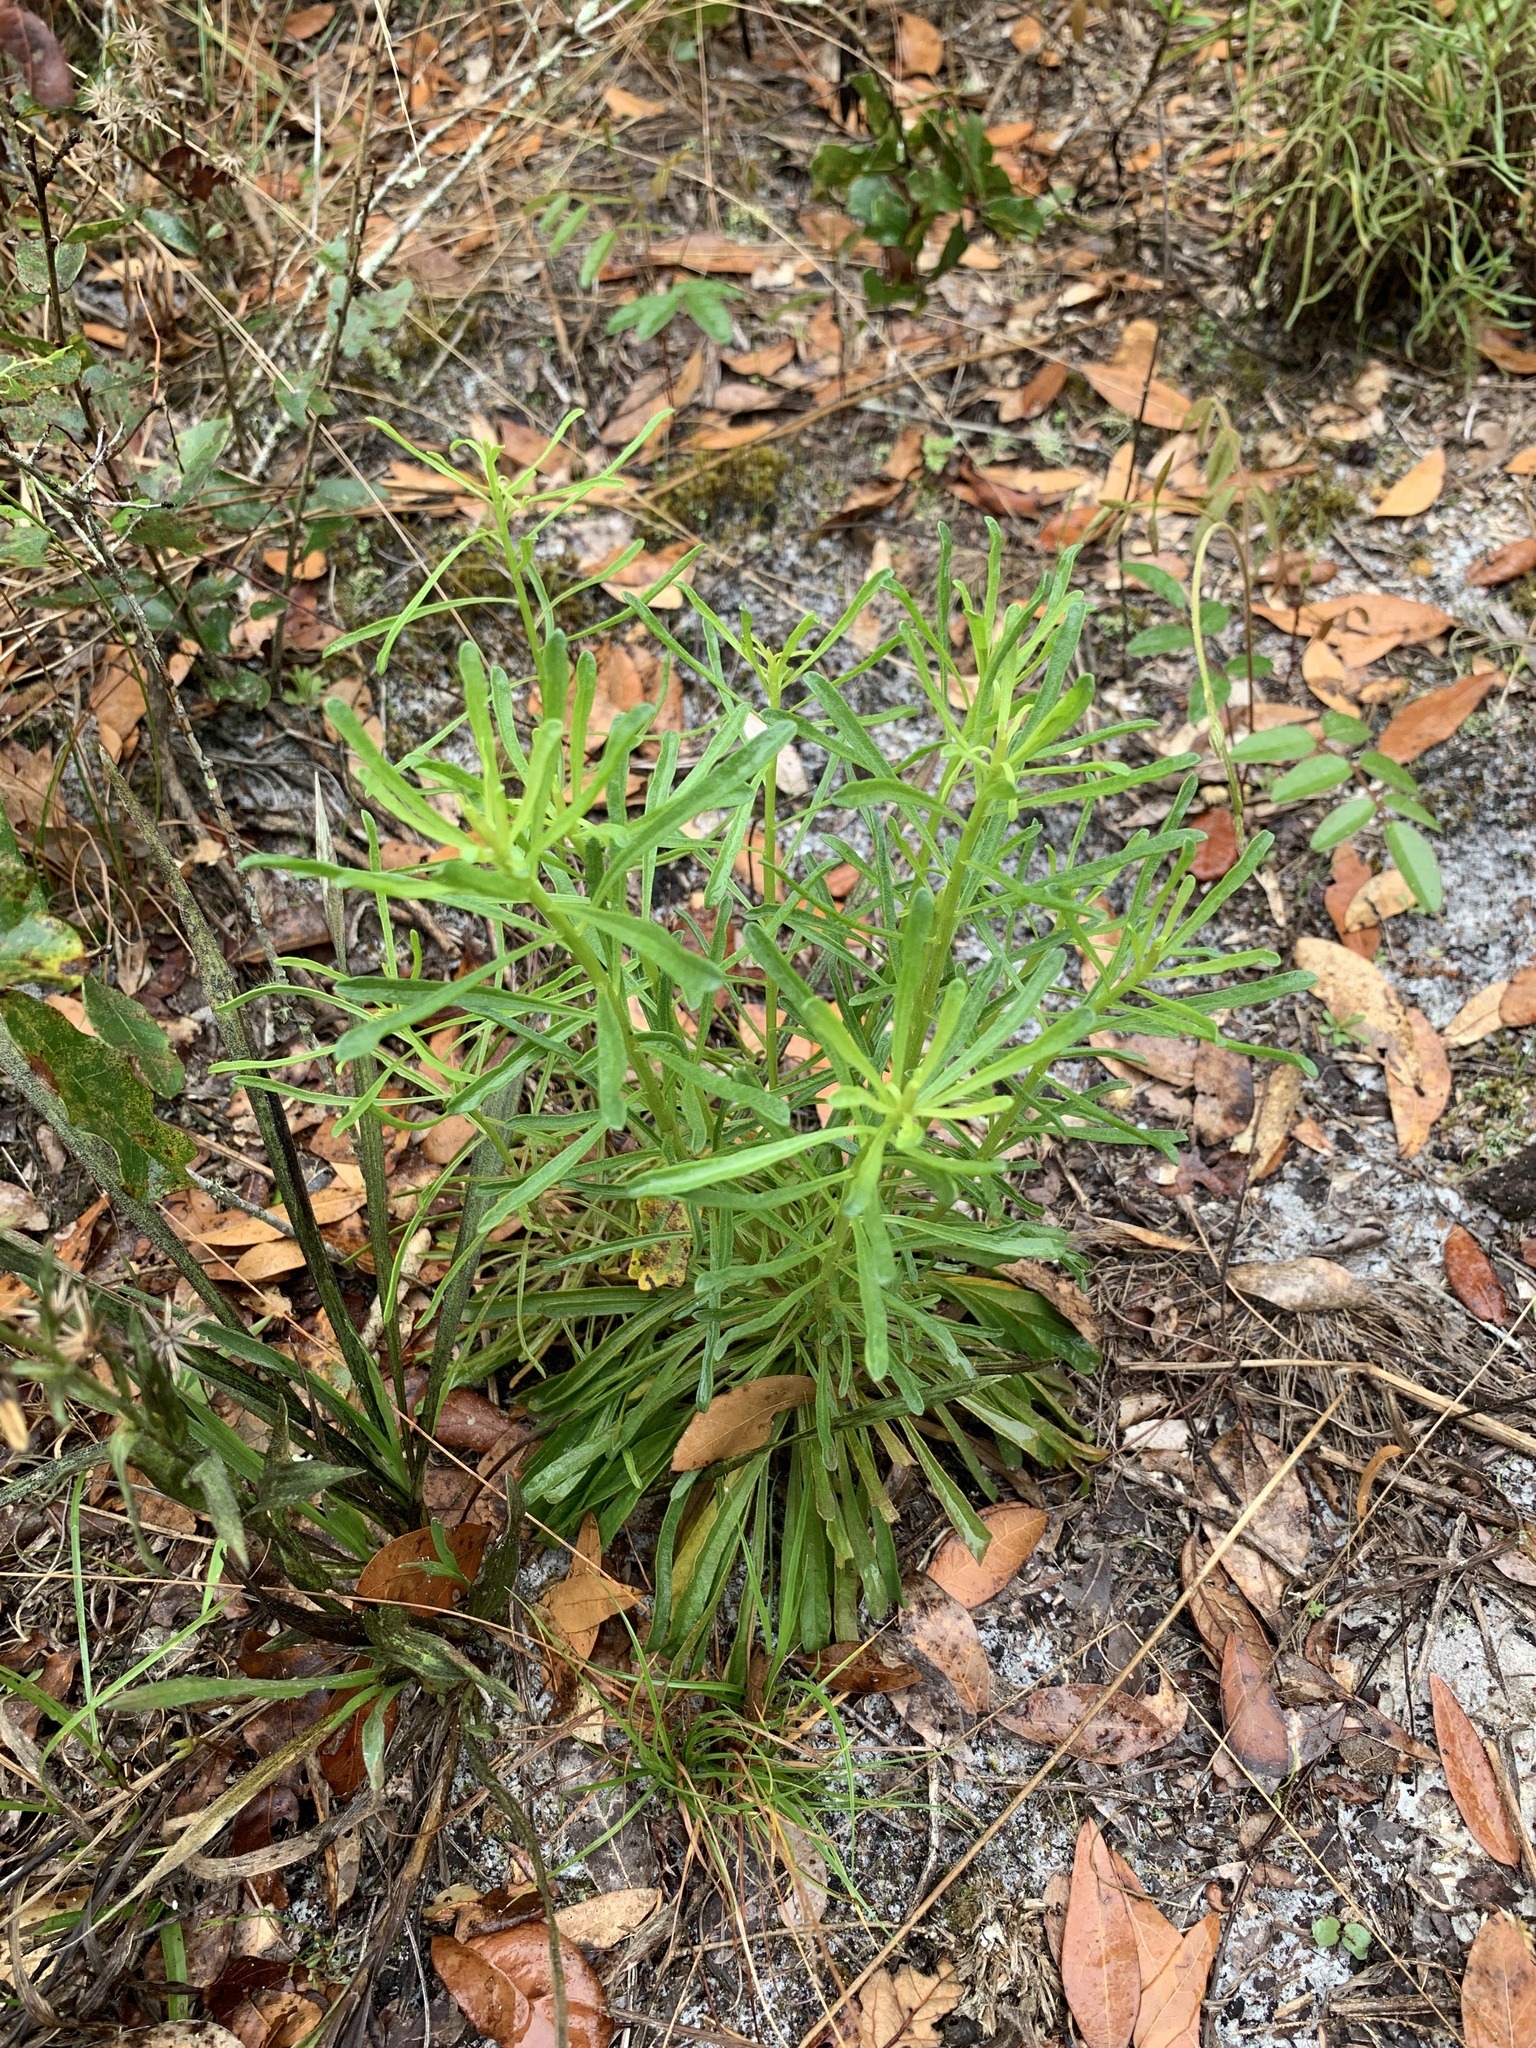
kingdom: Plantae
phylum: Tracheophyta
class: Magnoliopsida
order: Asterales
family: Asteraceae
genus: Balduina
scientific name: Balduina angustifolia
